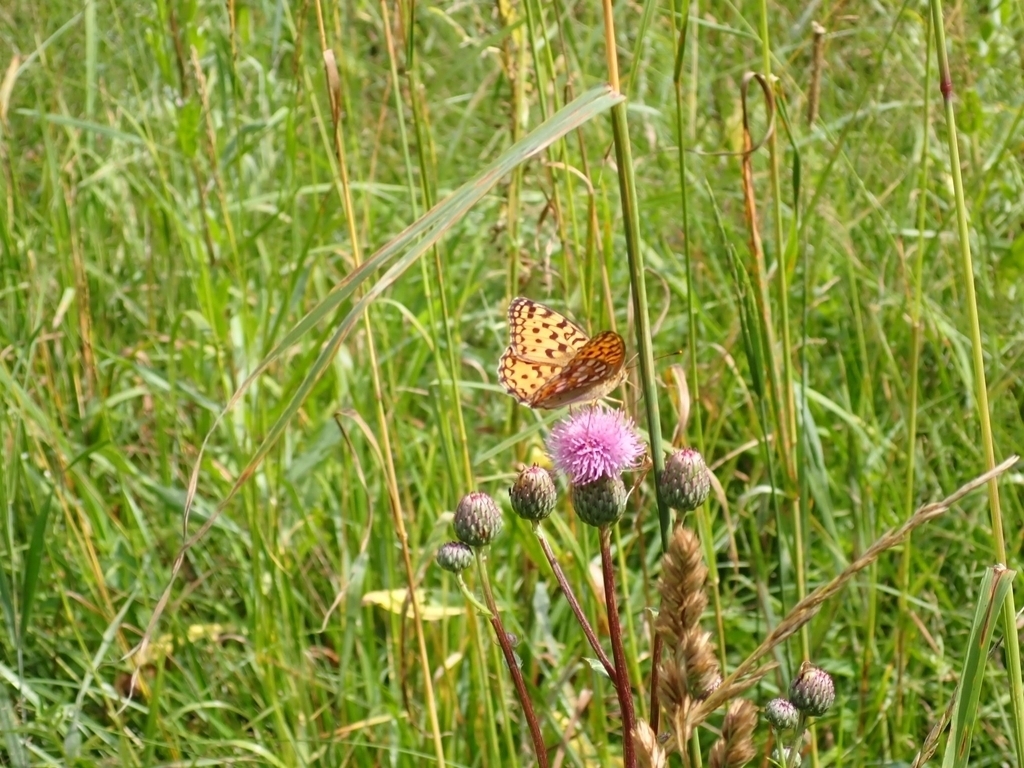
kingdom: Animalia
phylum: Arthropoda
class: Insecta
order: Lepidoptera
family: Nymphalidae
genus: Argynnis
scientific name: Argynnis paphia
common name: Silver-washed fritillary
